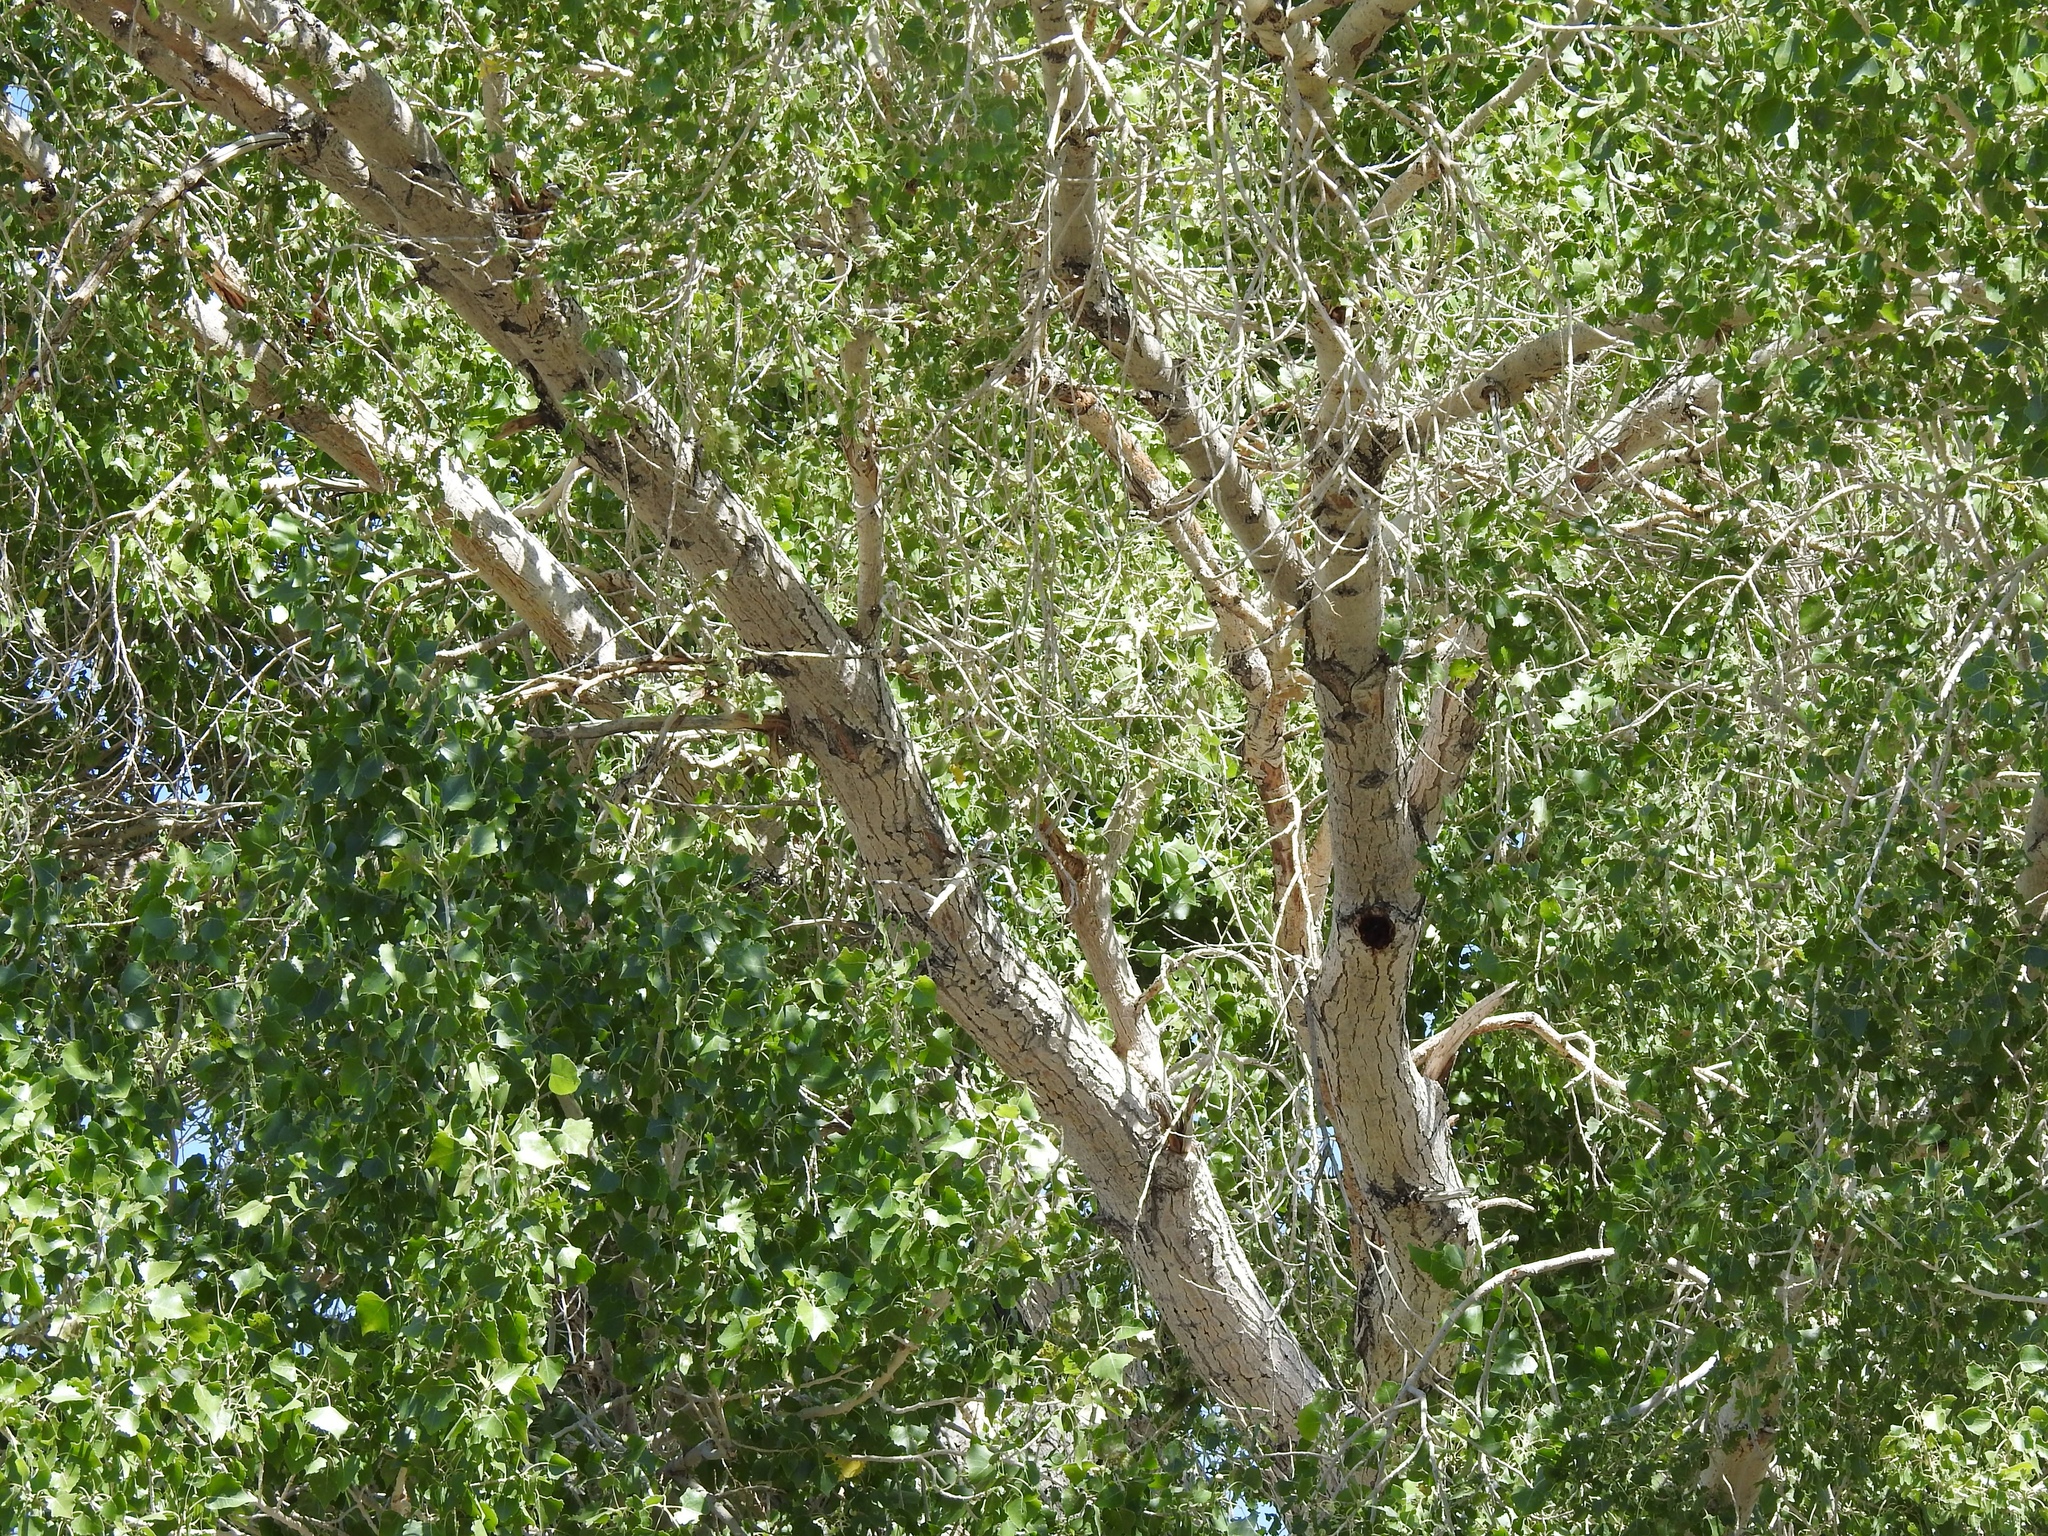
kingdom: Plantae
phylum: Tracheophyta
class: Magnoliopsida
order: Malpighiales
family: Salicaceae
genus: Populus
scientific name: Populus fremontii
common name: Fremont's cottonwood
